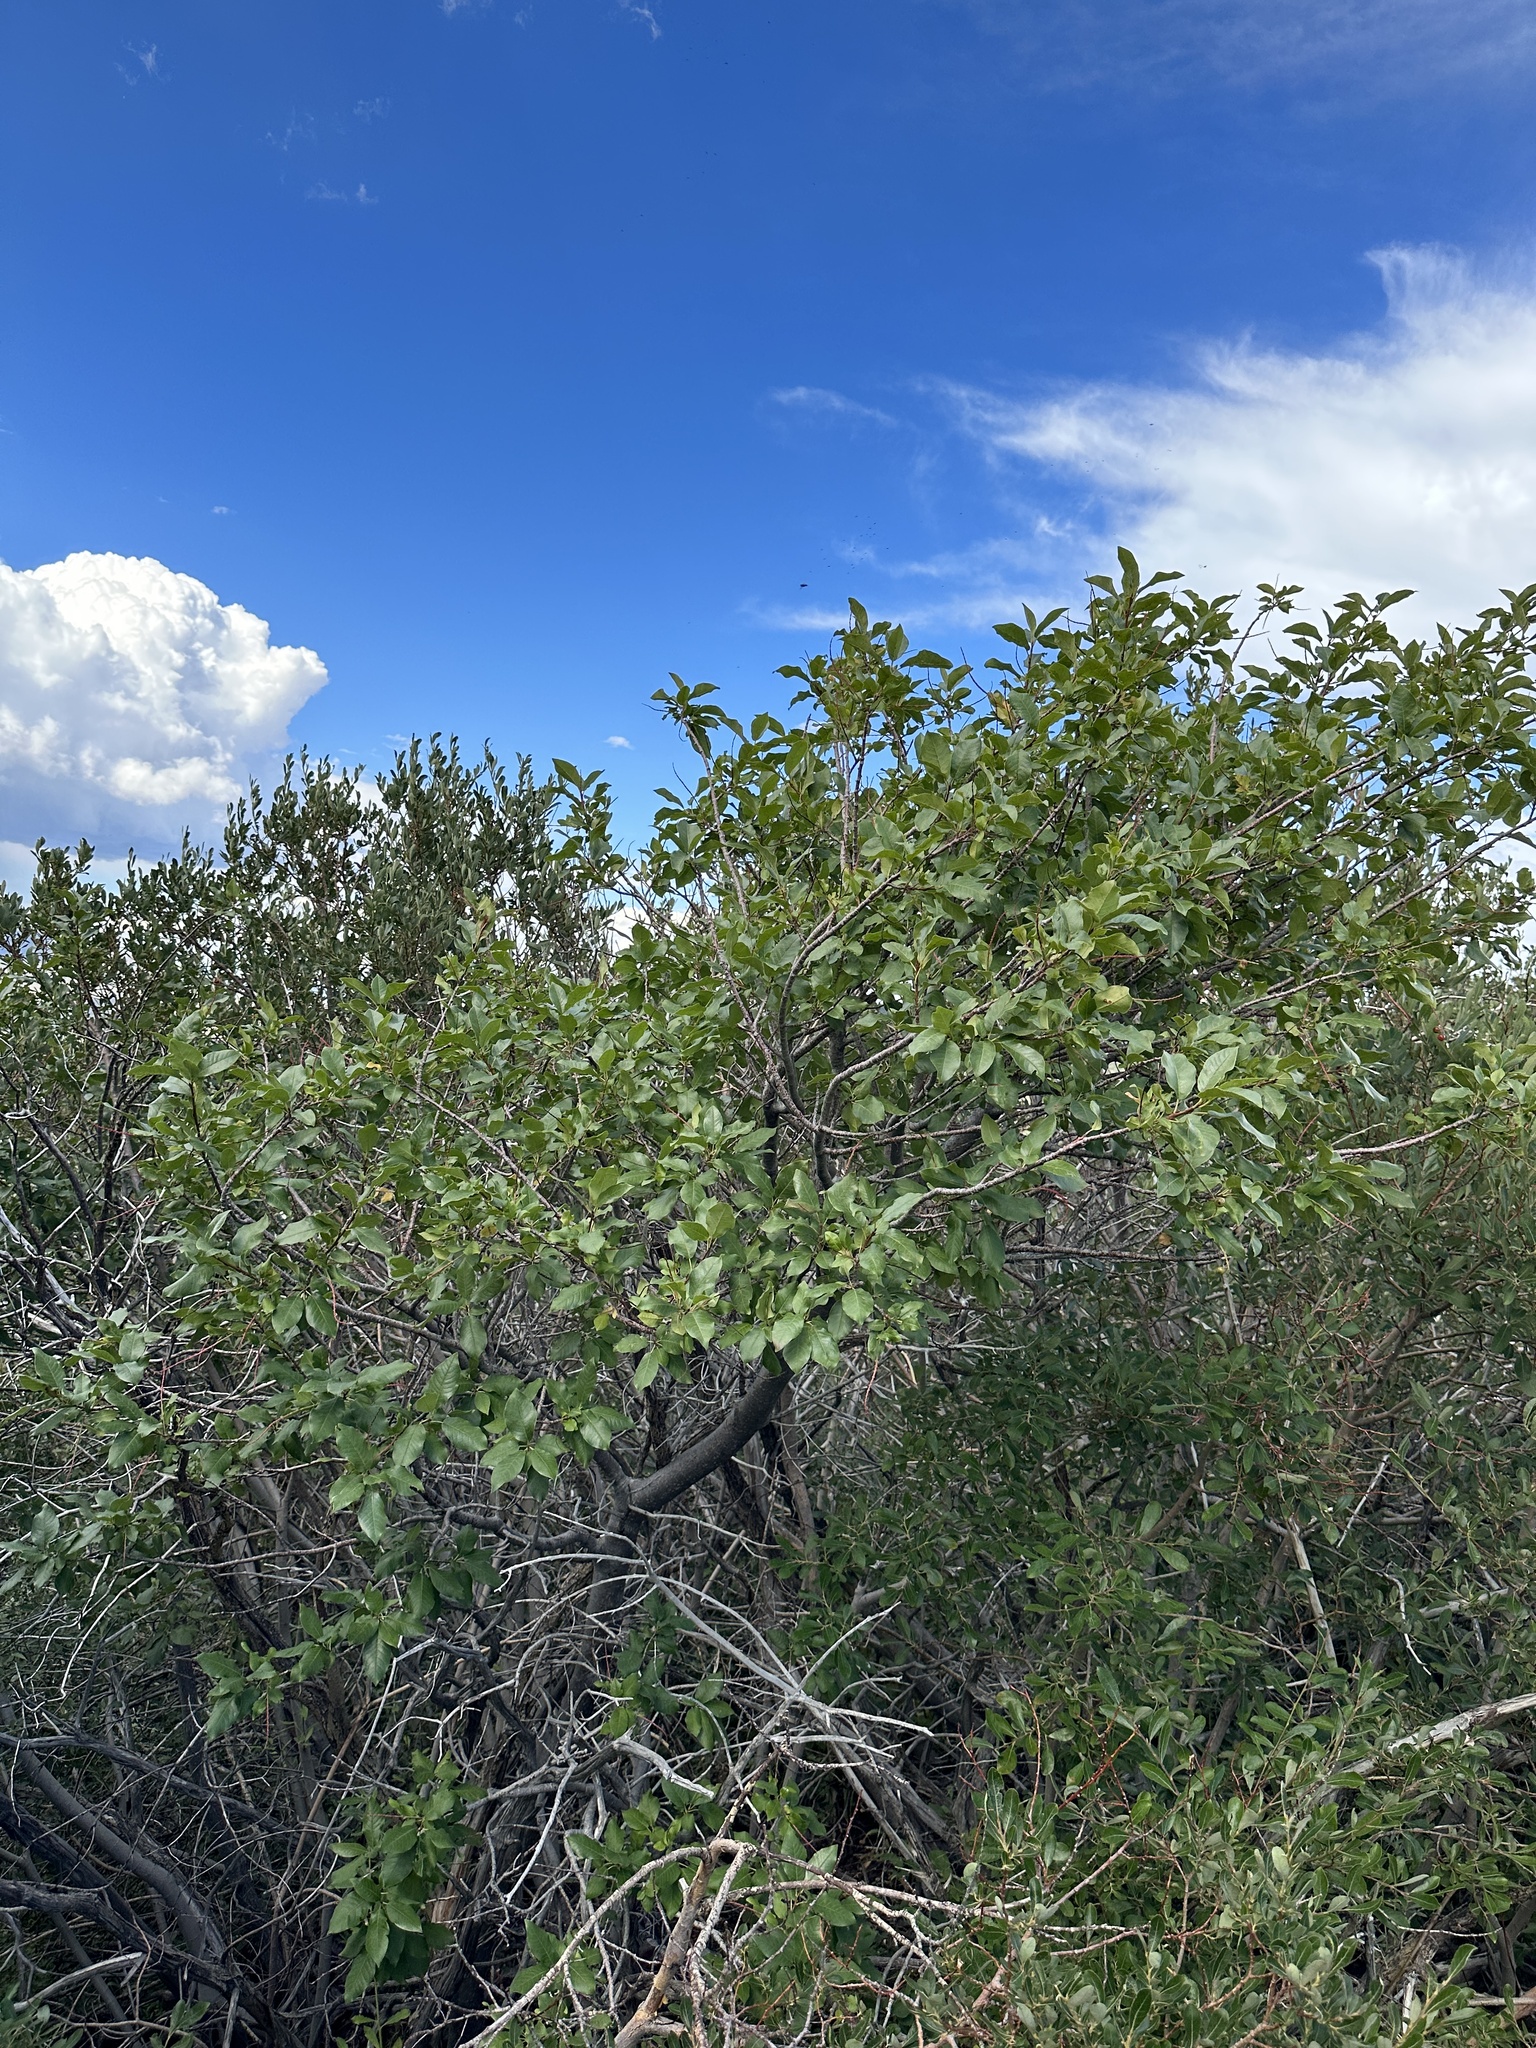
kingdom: Plantae
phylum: Tracheophyta
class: Magnoliopsida
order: Rosales
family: Rosaceae
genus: Prunus
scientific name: Prunus virginiana
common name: Chokecherry
